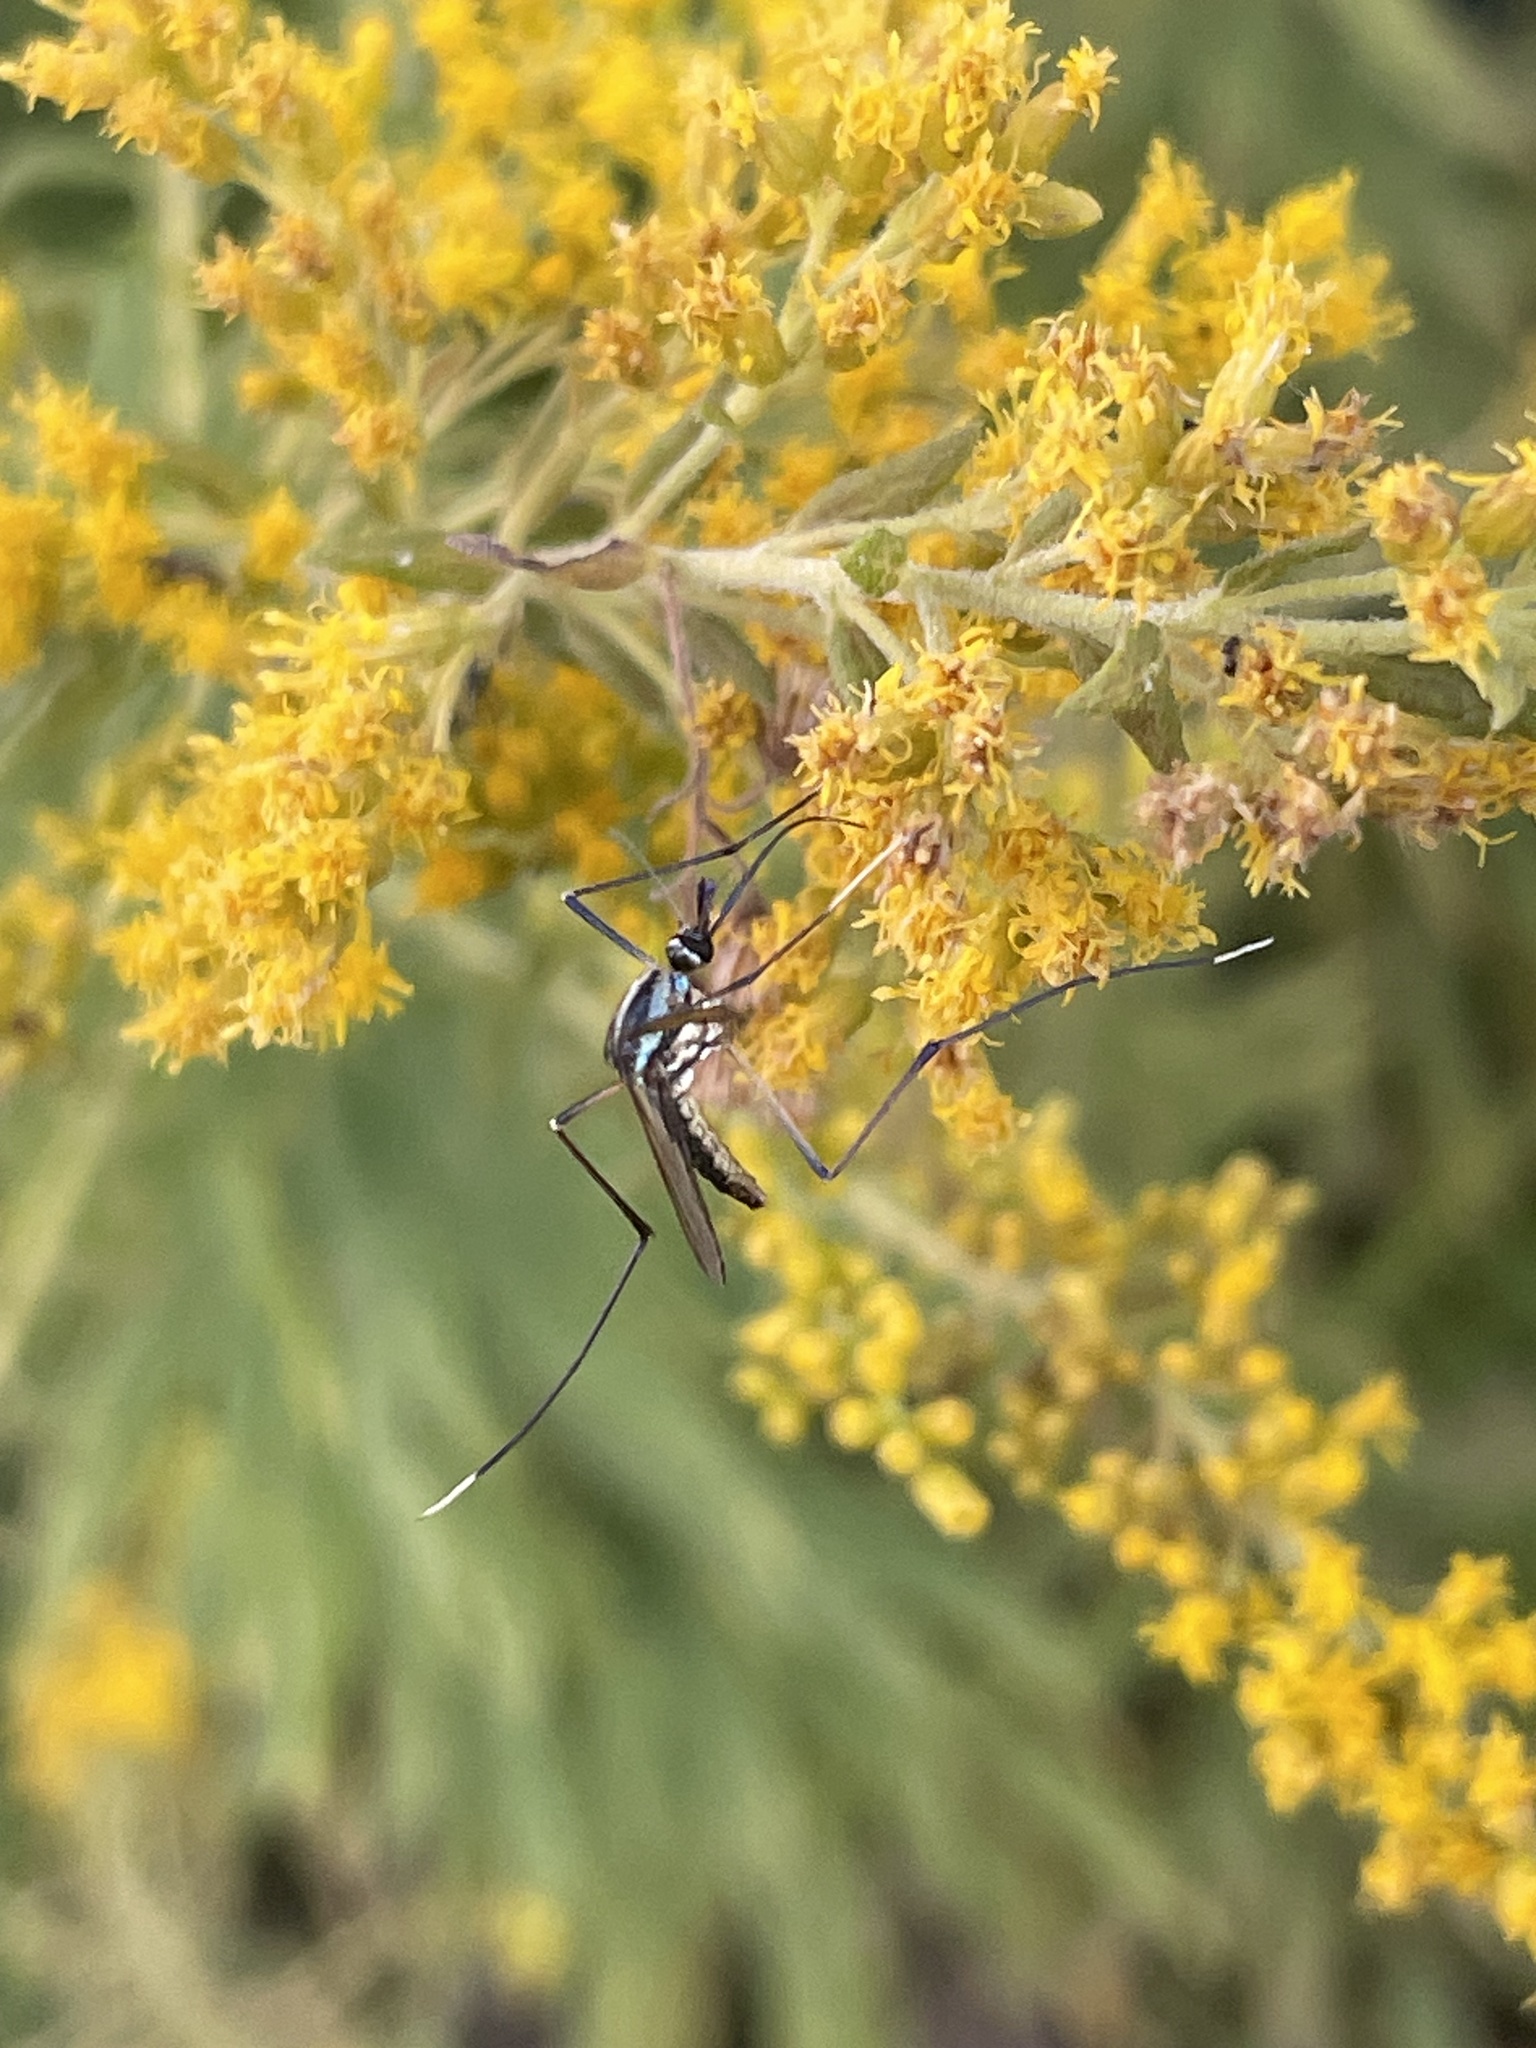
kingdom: Animalia
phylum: Arthropoda
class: Insecta
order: Diptera
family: Culicidae
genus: Toxorhynchites
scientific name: Toxorhynchites rutilus
